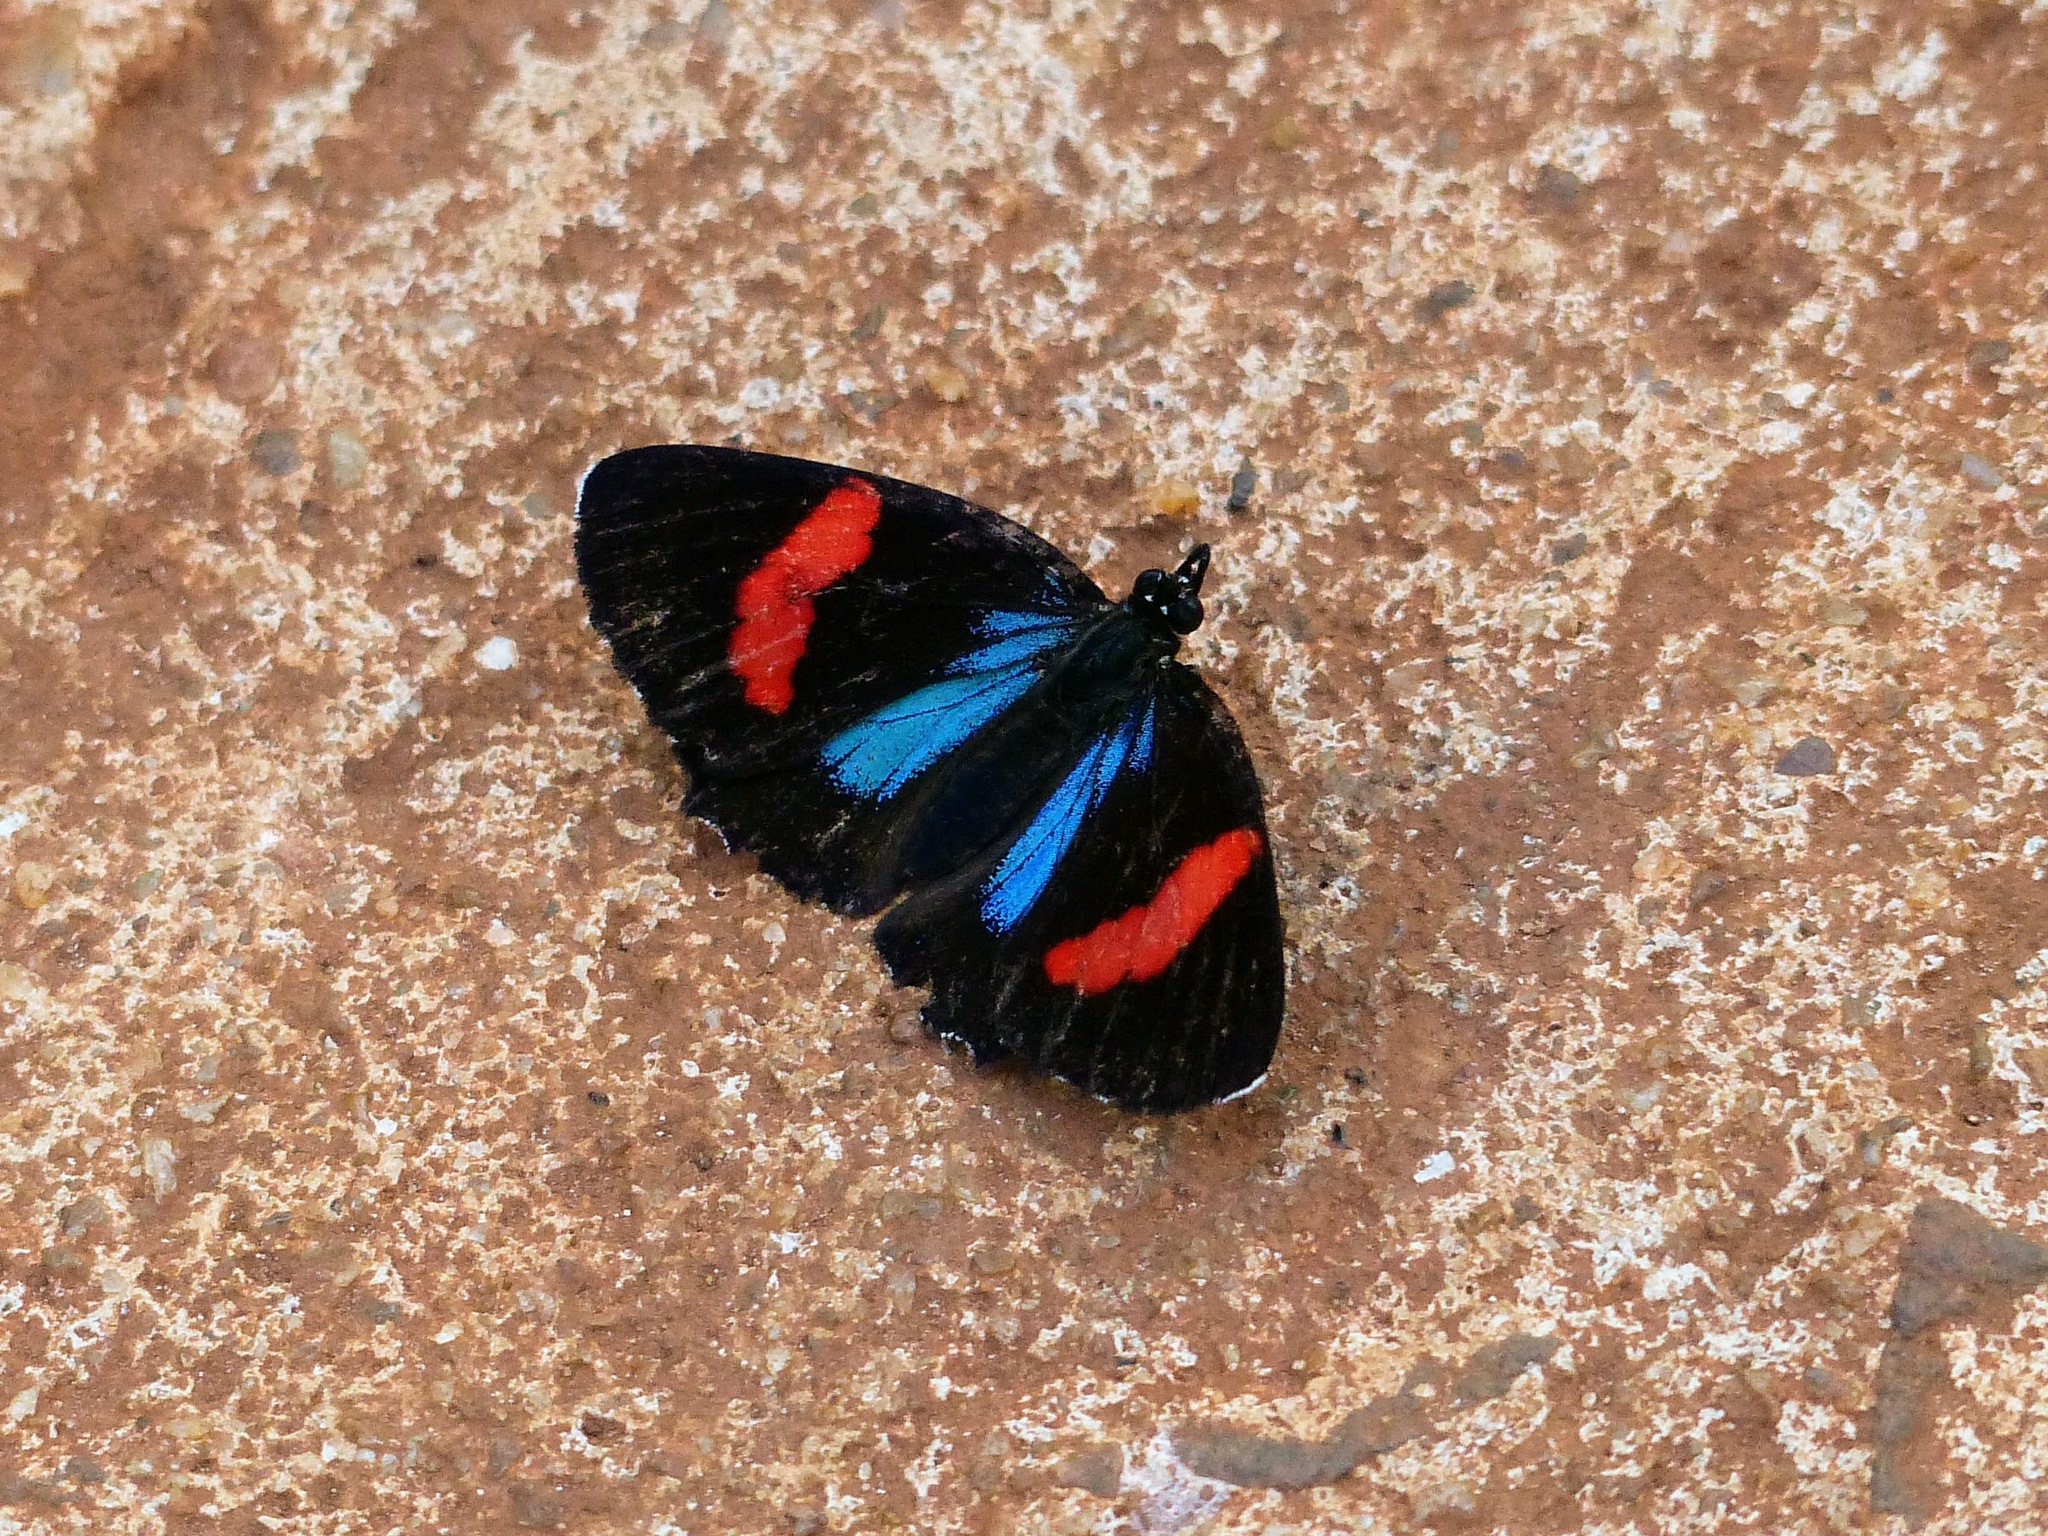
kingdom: Animalia
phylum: Arthropoda
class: Insecta
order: Lepidoptera
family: Nymphalidae
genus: Catagramma
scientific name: Catagramma Callicore hydaspes
